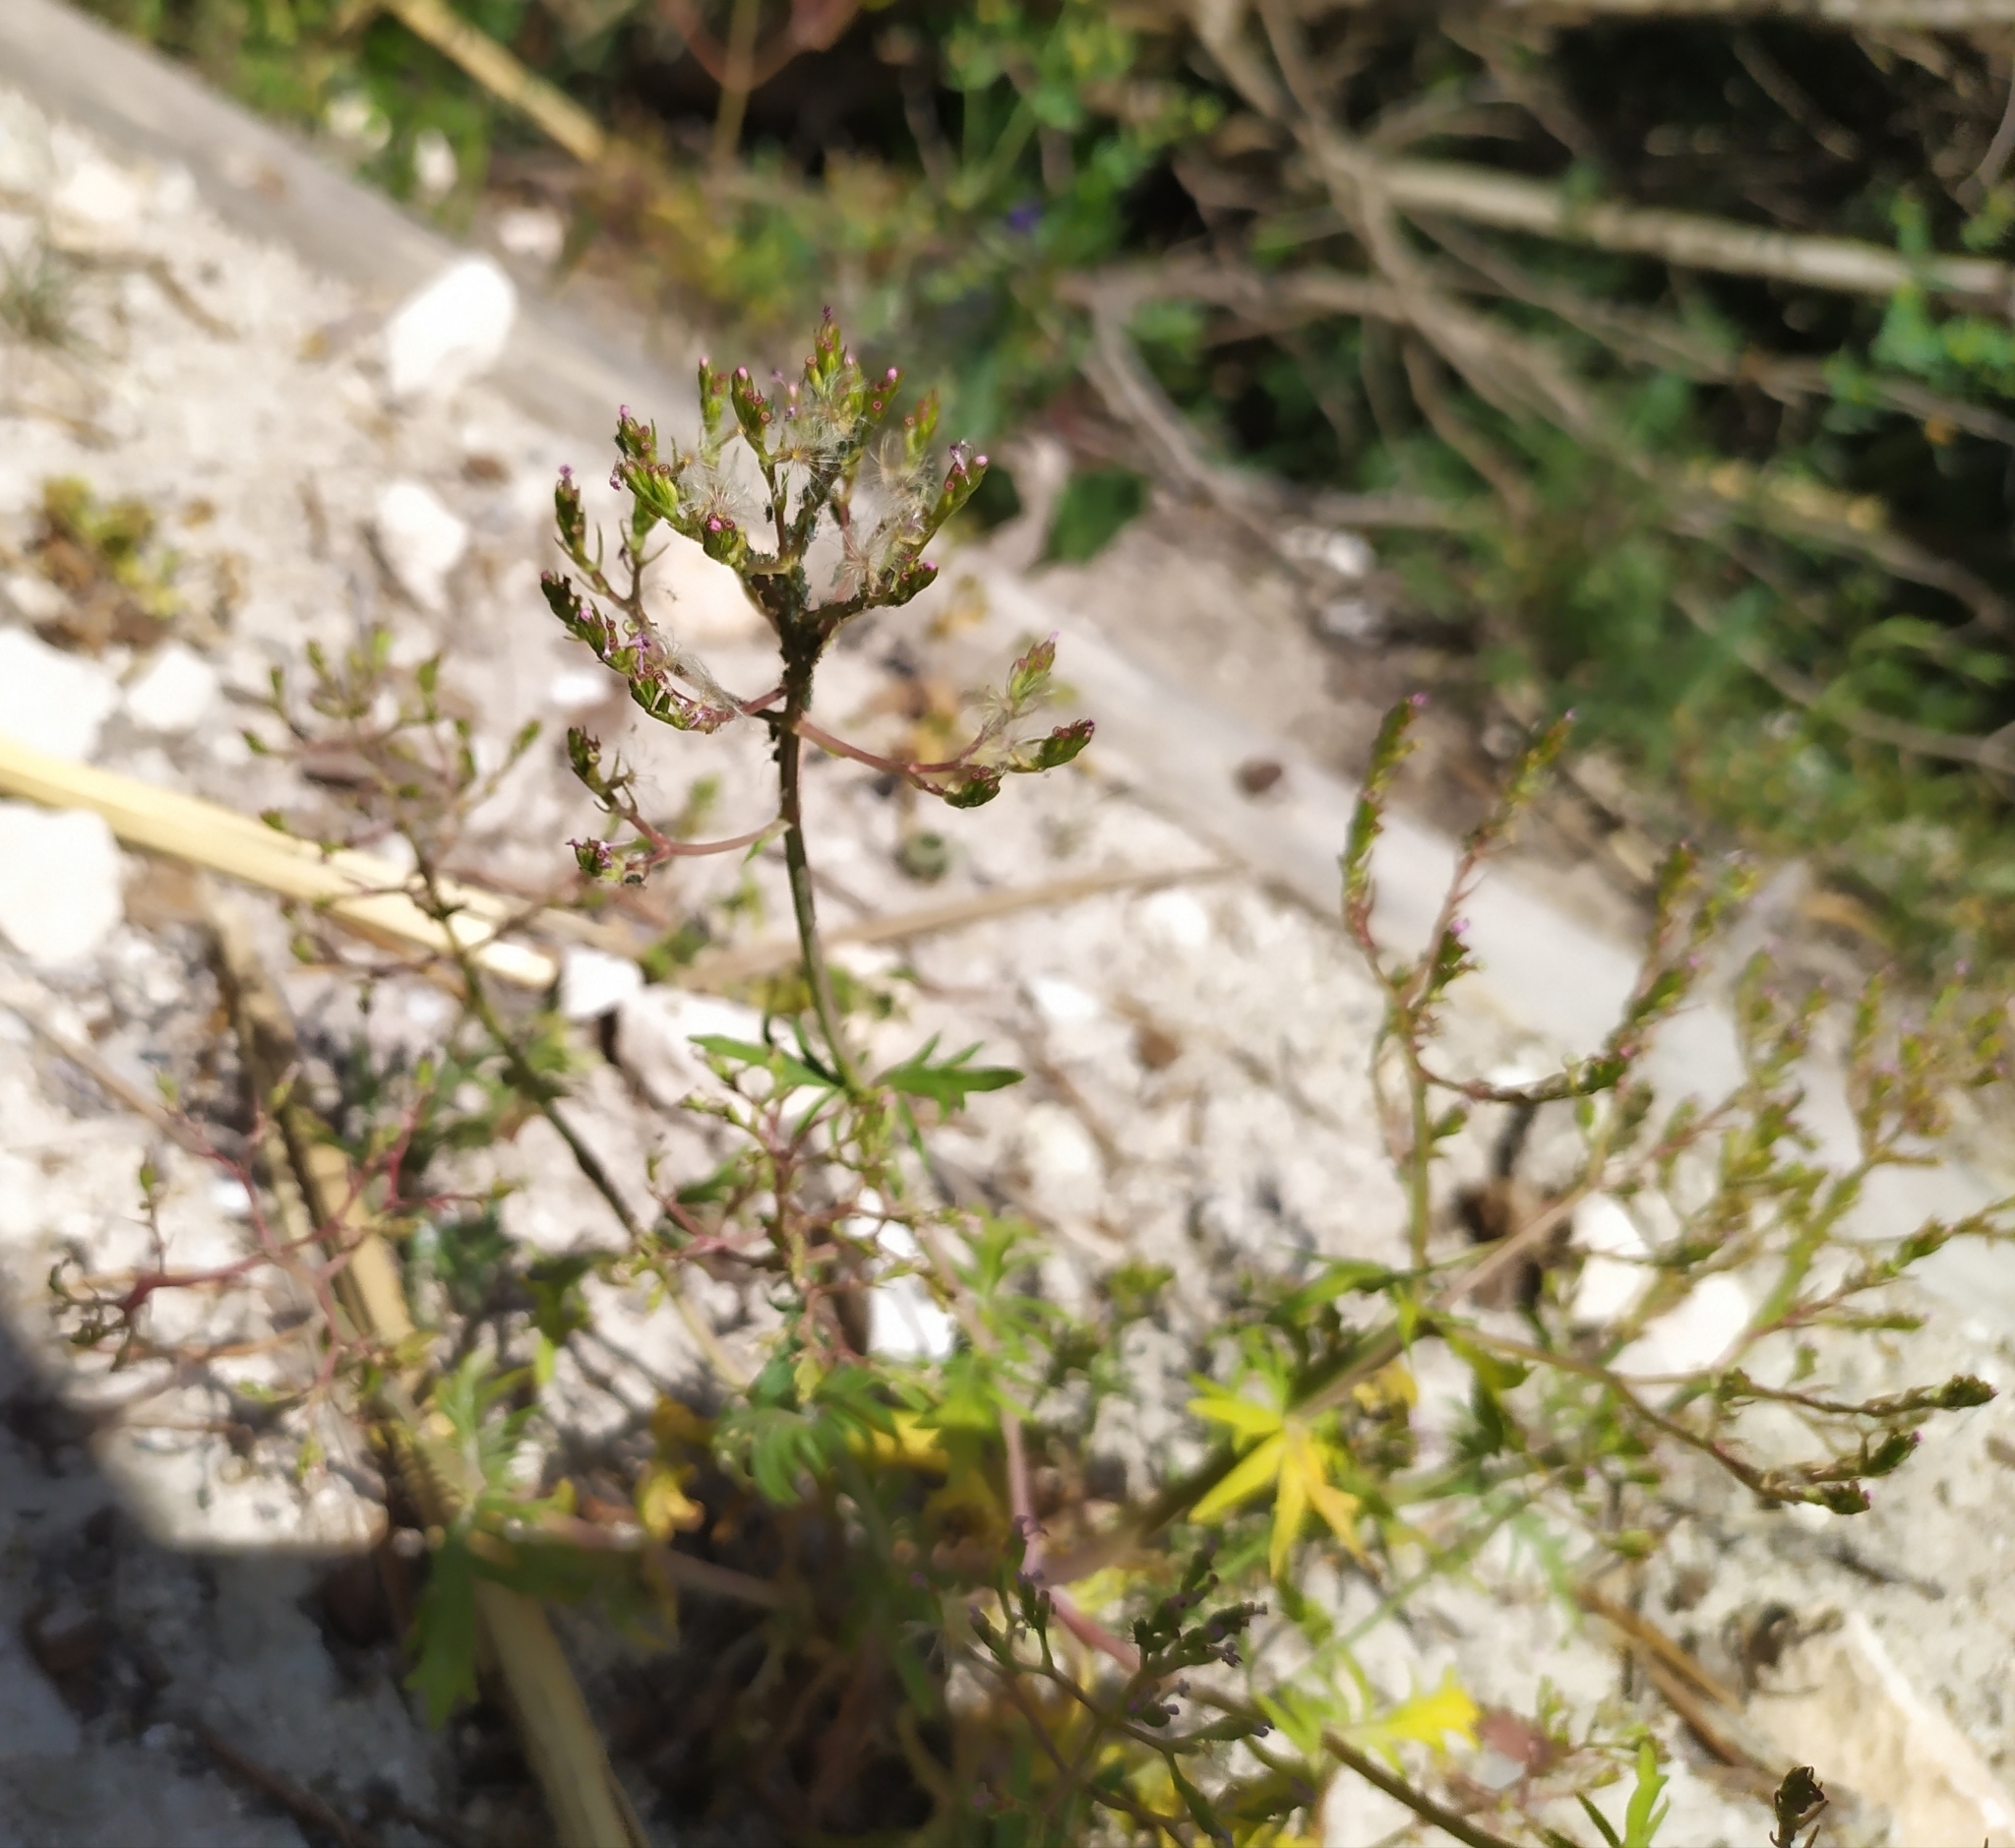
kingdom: Plantae
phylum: Tracheophyta
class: Magnoliopsida
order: Dipsacales
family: Caprifoliaceae
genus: Centranthus
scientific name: Centranthus calcitrapae
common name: Annual valerian
